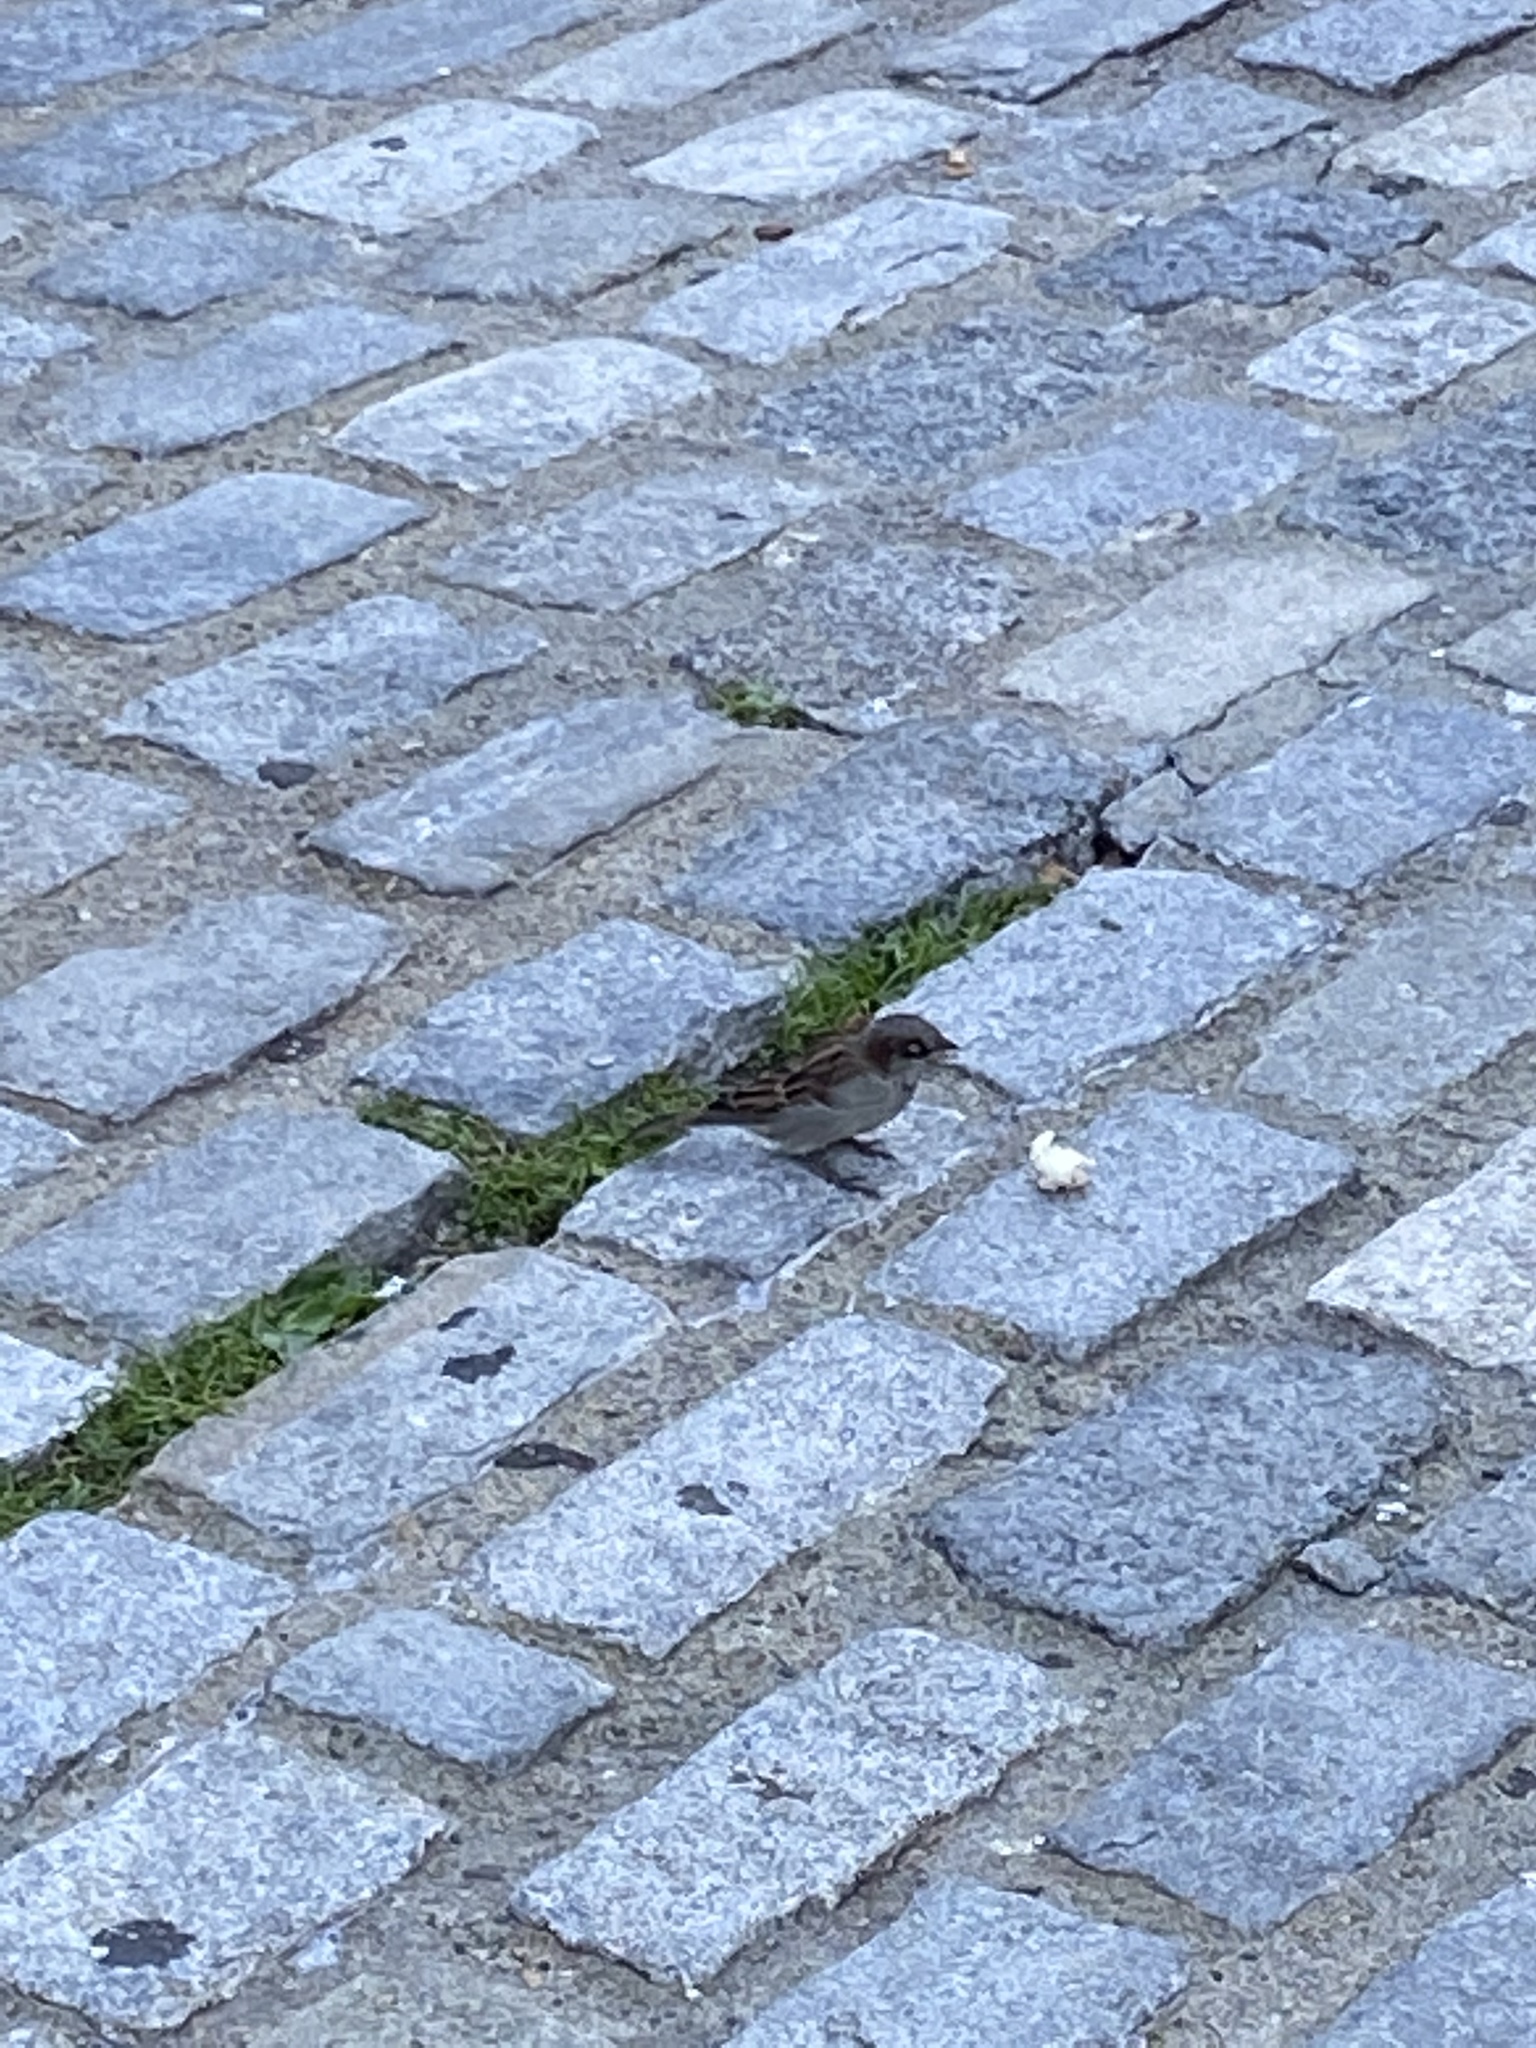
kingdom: Animalia
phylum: Chordata
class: Aves
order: Passeriformes
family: Passeridae
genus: Passer
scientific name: Passer domesticus
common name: House sparrow
